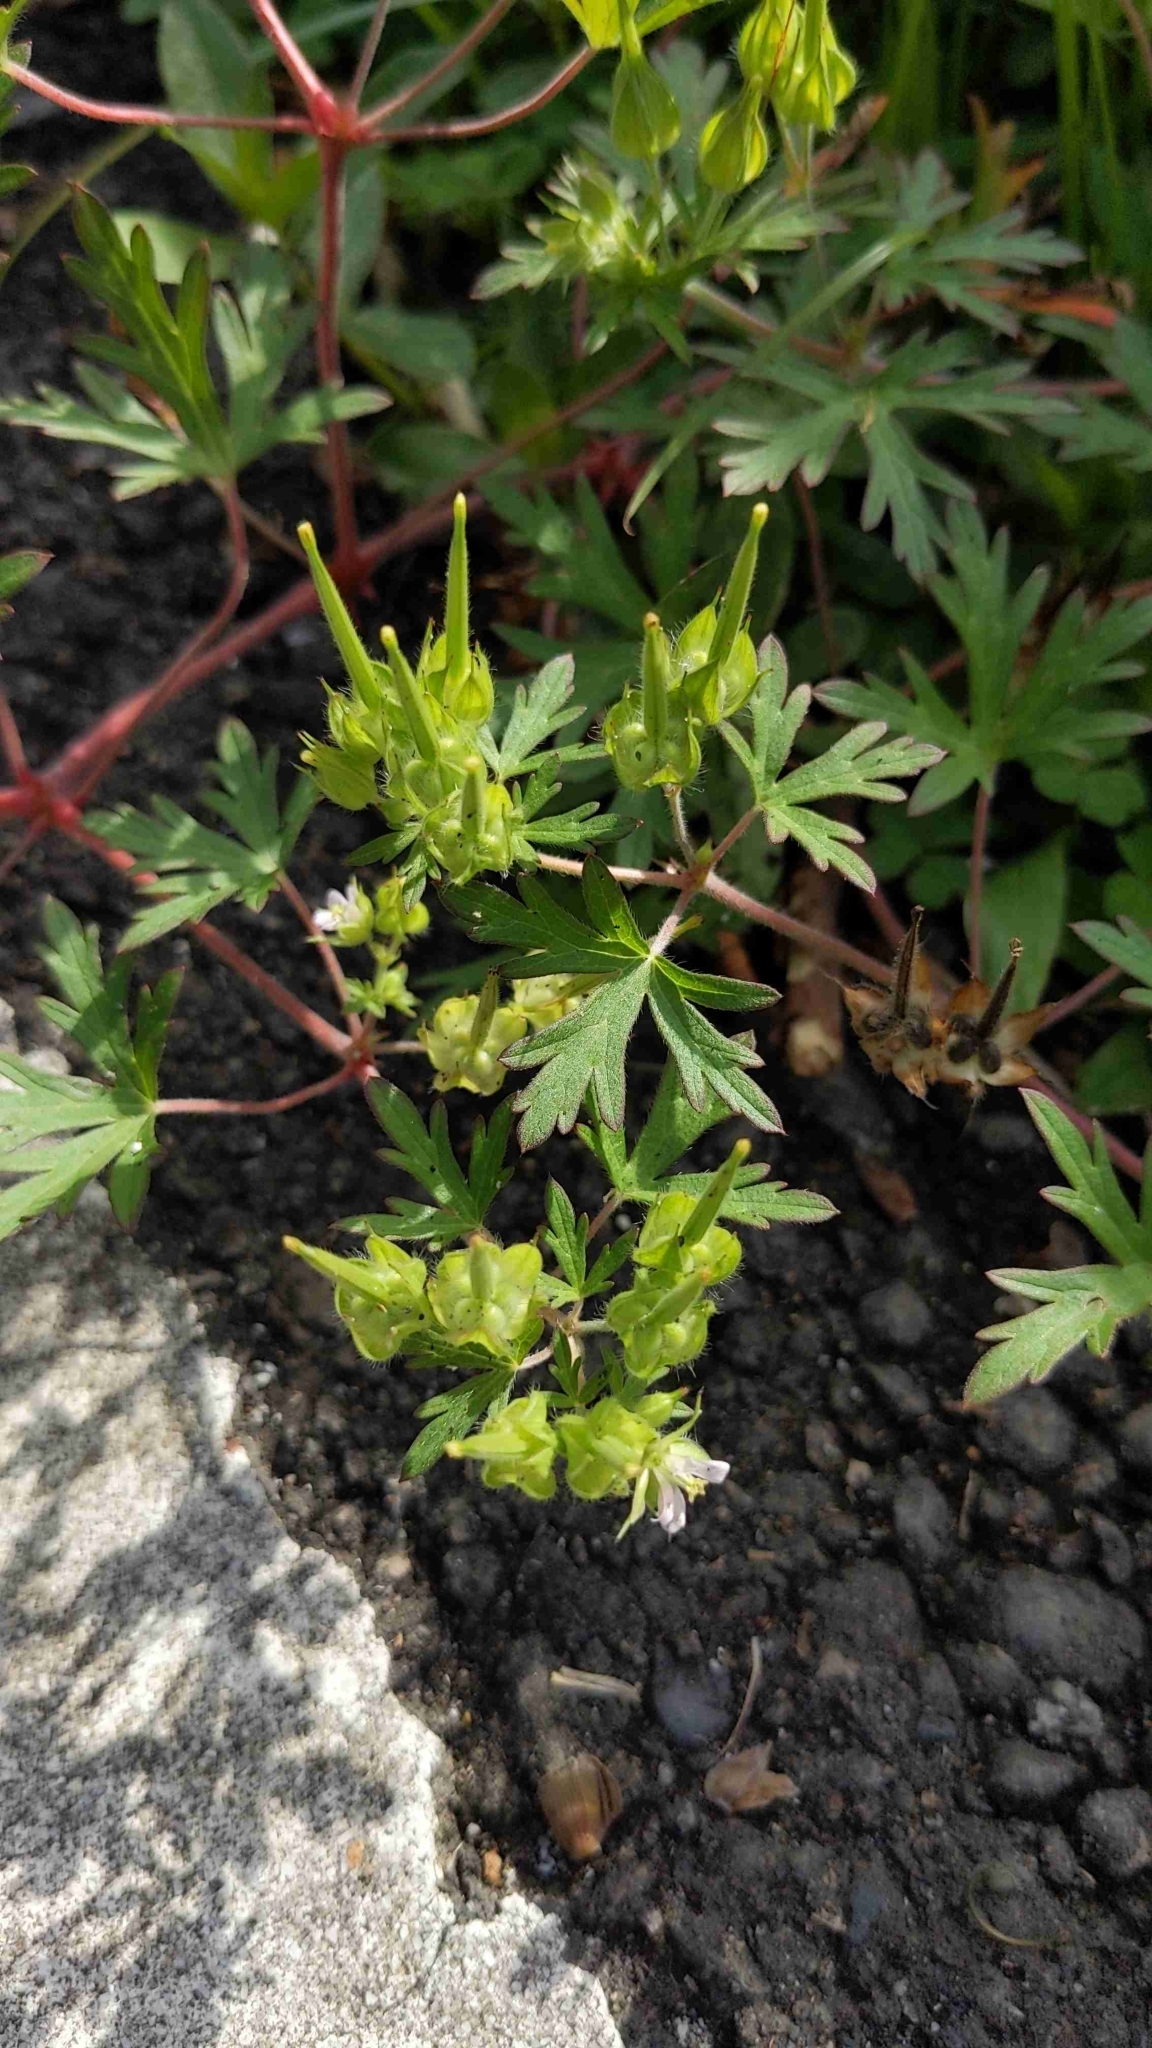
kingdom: Plantae
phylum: Tracheophyta
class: Magnoliopsida
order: Geraniales
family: Geraniaceae
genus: Geranium
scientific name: Geranium carolinianum
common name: Carolina crane's-bill
